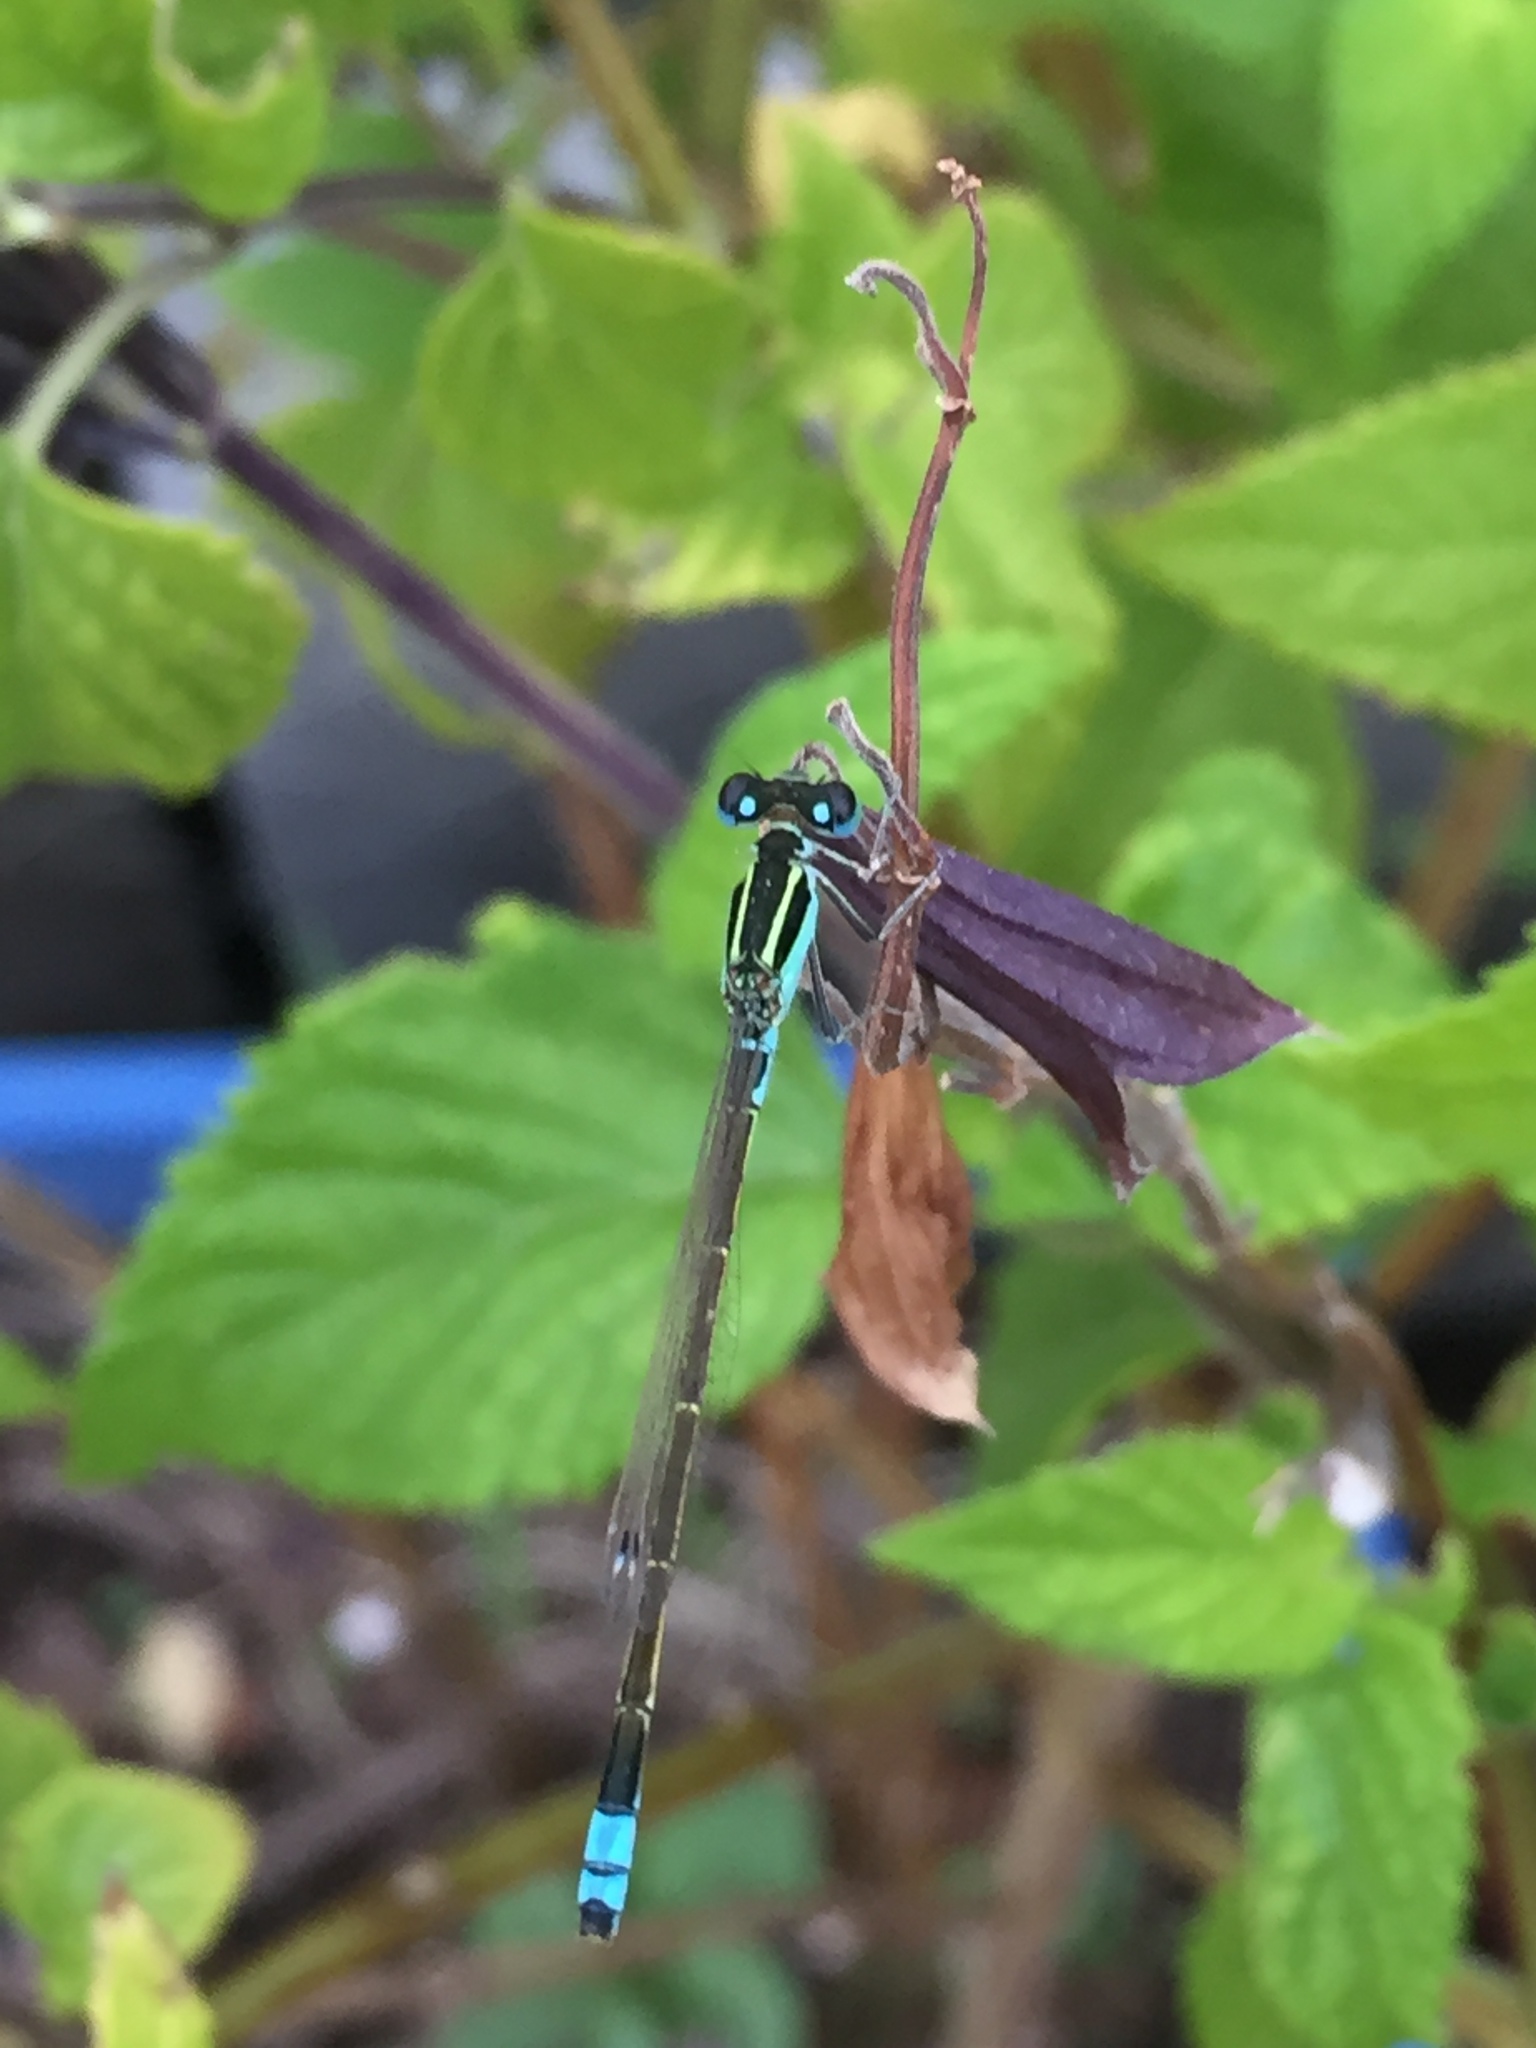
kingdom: Animalia
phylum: Arthropoda
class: Insecta
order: Odonata
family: Coenagrionidae
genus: Ischnura
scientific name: Ischnura fluviatilis
